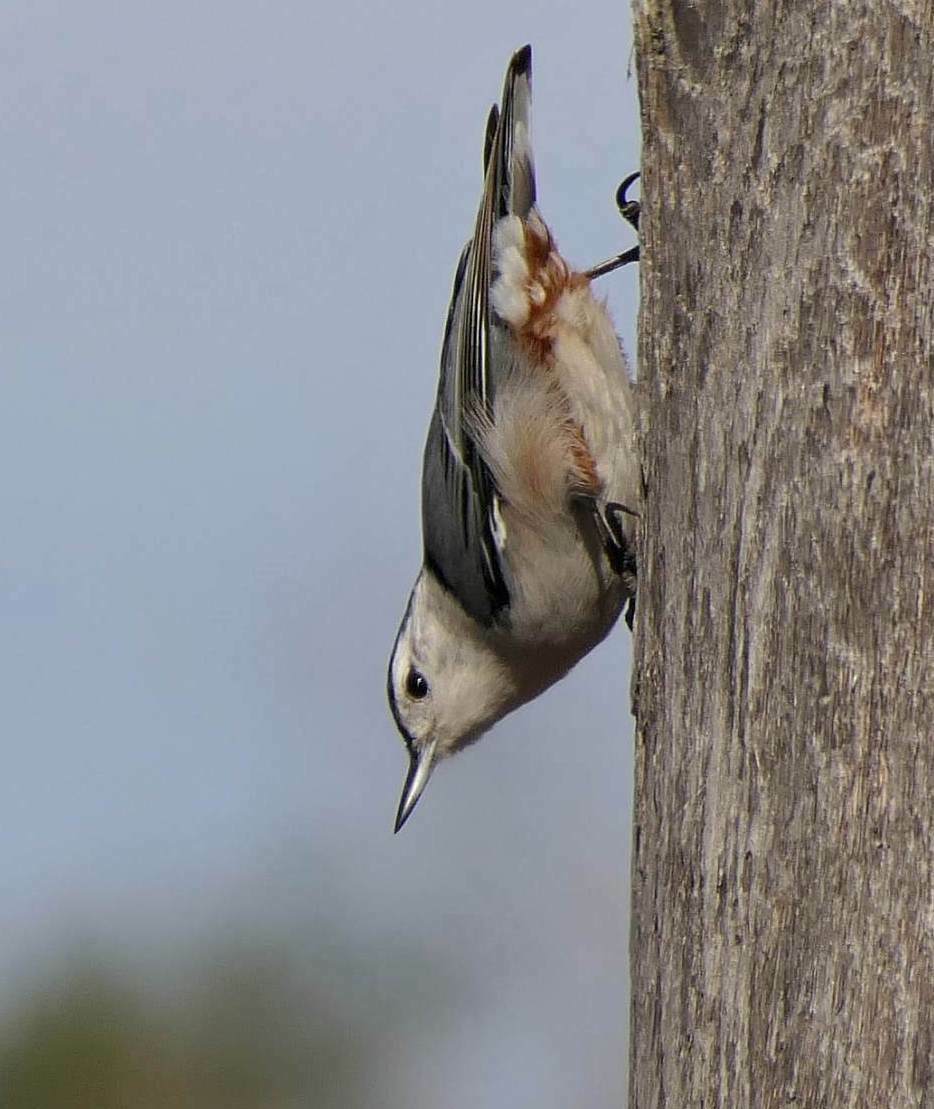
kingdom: Animalia
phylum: Chordata
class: Aves
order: Passeriformes
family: Sittidae
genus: Sitta
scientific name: Sitta carolinensis
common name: White-breasted nuthatch
